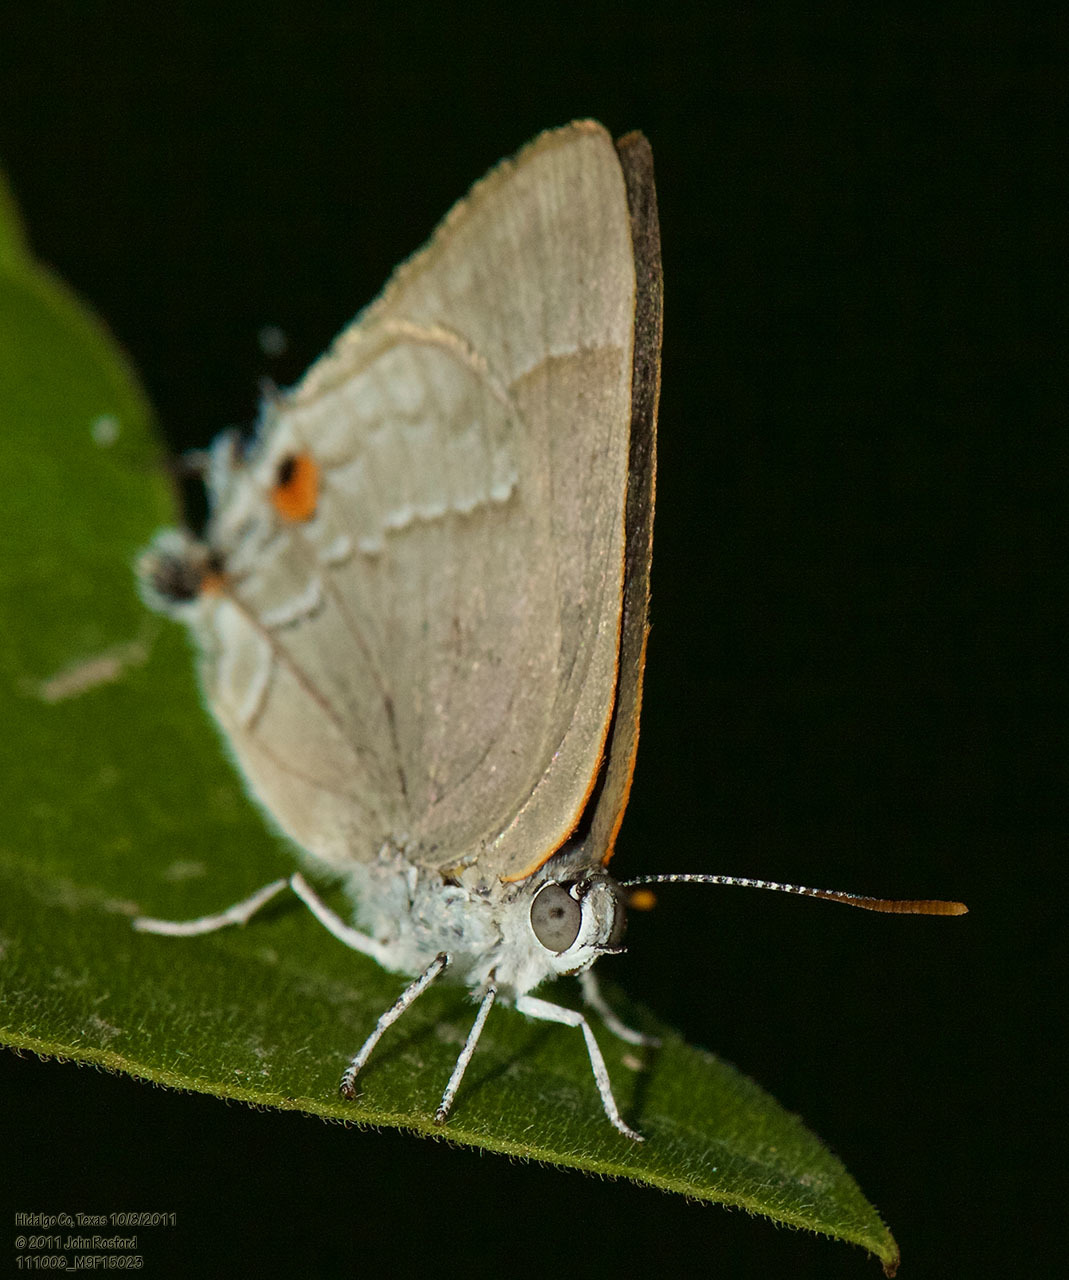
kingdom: Animalia
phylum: Arthropoda
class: Insecta
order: Lepidoptera
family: Lycaenidae
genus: Thecla
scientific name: Thecla marius
